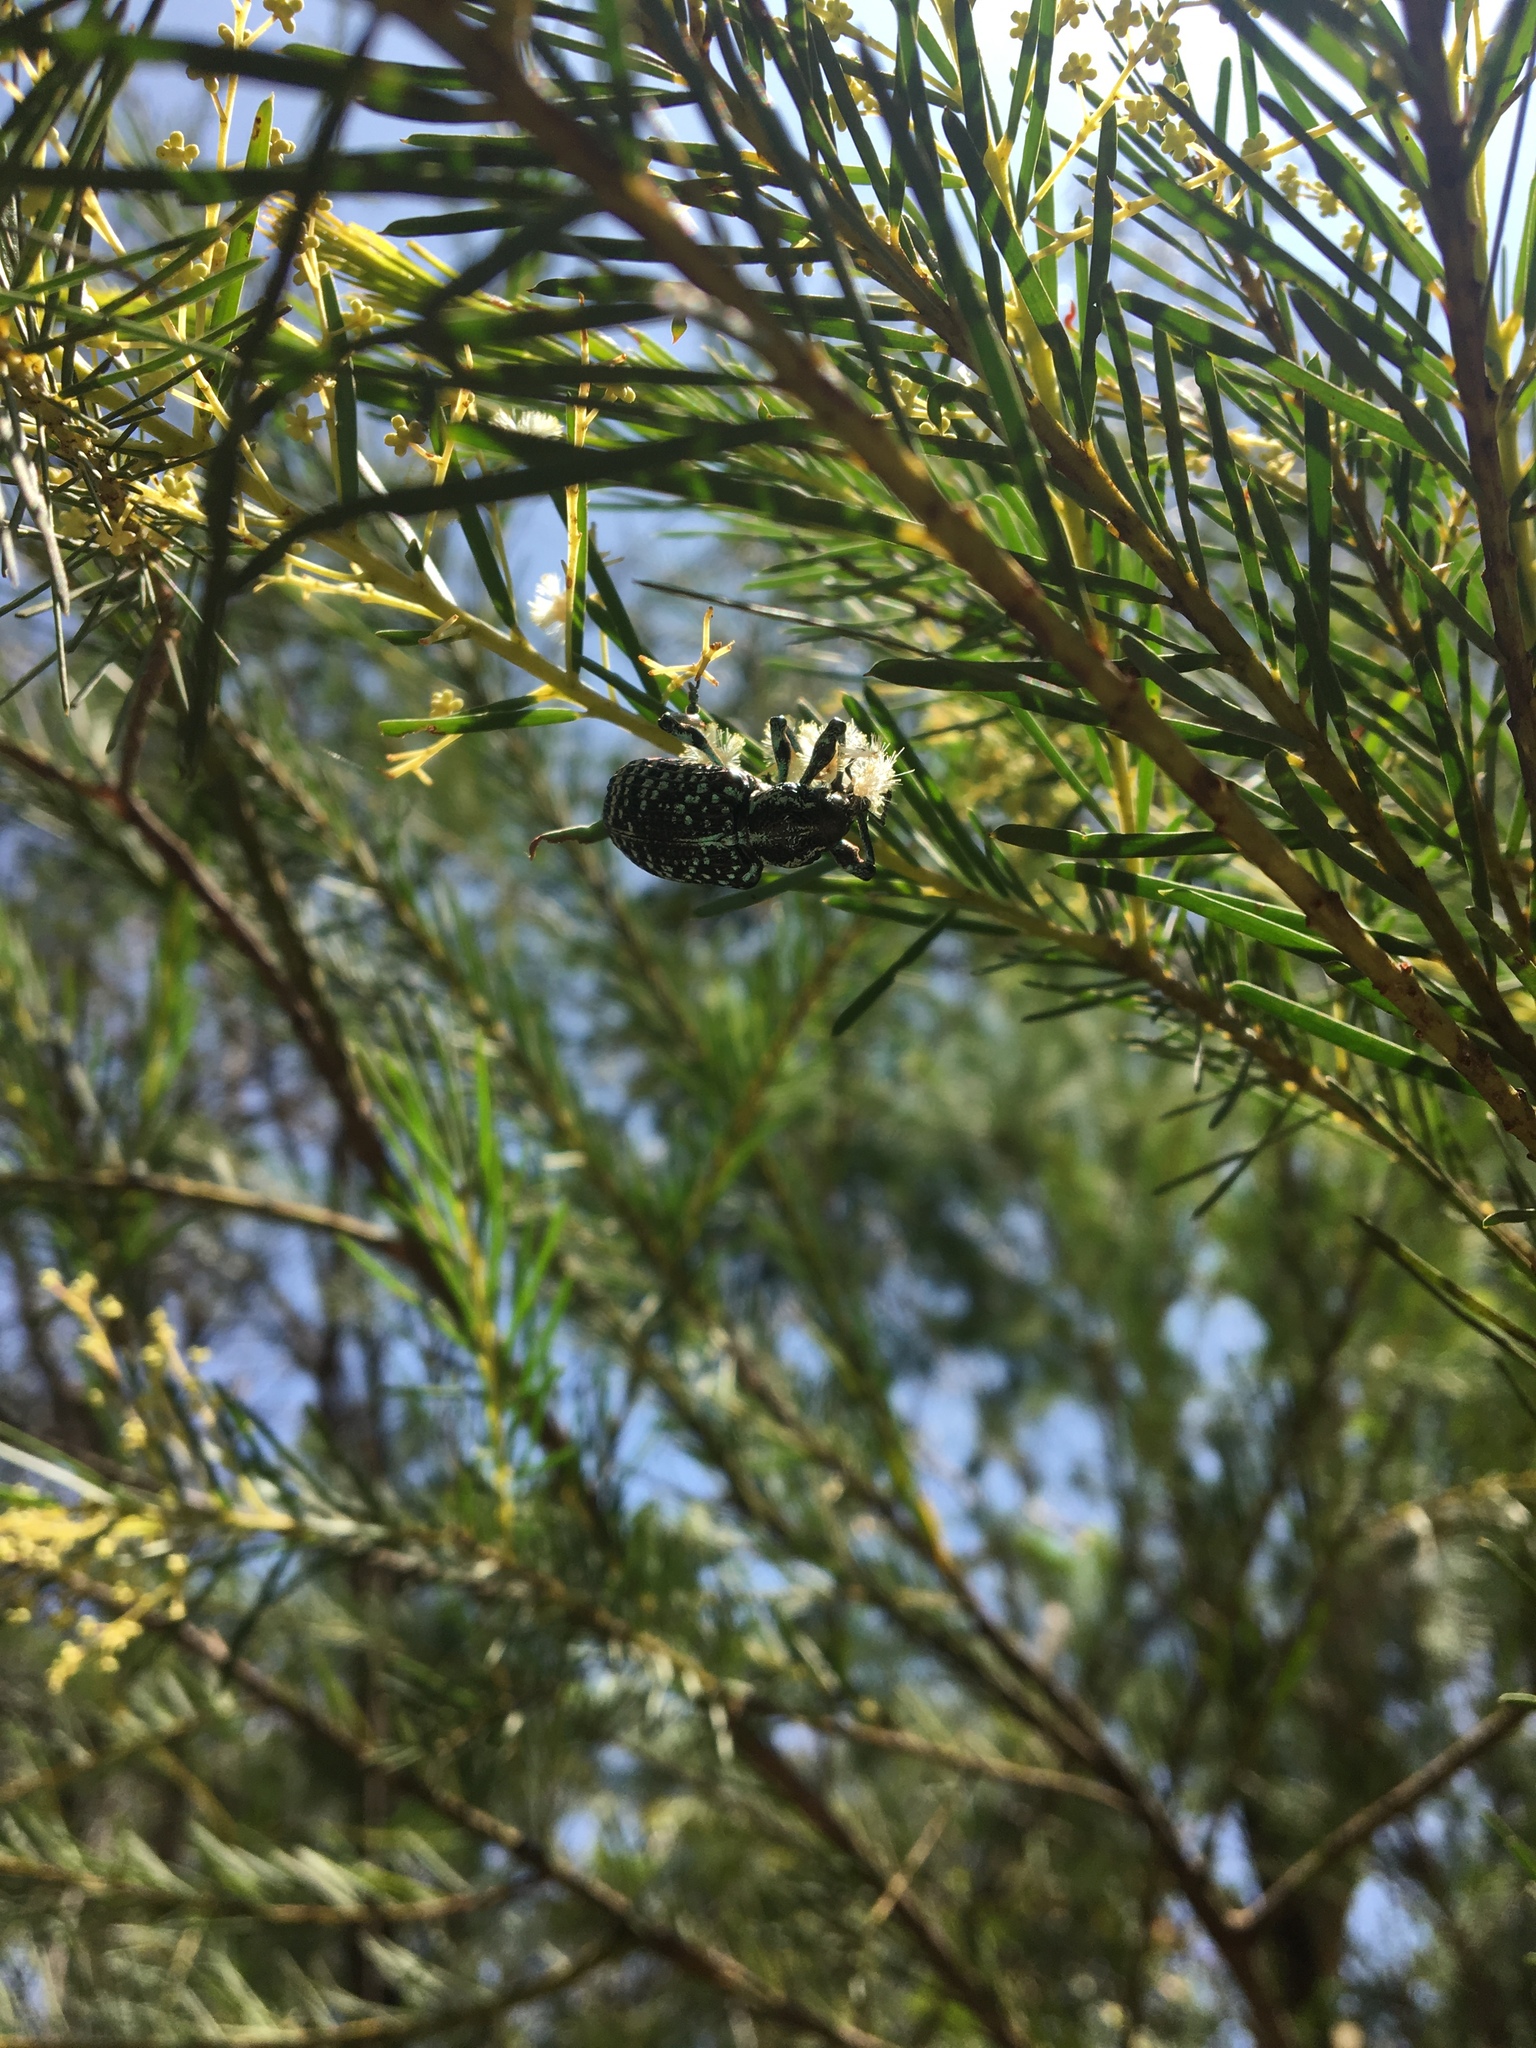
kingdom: Animalia
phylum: Arthropoda
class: Insecta
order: Coleoptera
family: Curculionidae
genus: Chrysolopus
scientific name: Chrysolopus spectabilis
